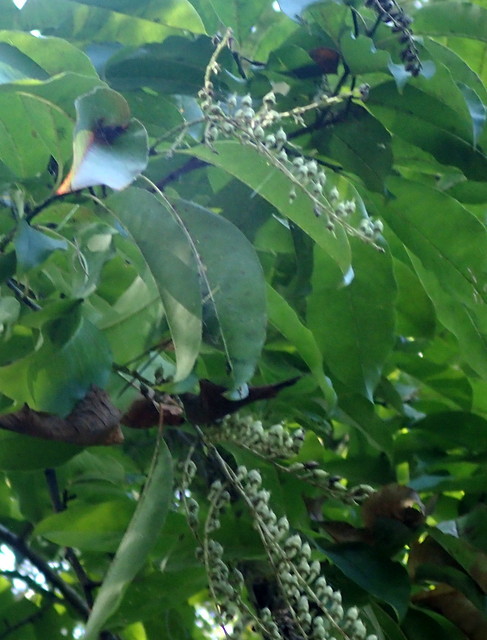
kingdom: Plantae
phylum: Tracheophyta
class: Magnoliopsida
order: Ericales
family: Ericaceae
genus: Oxydendrum
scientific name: Oxydendrum arboreum
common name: Sourwood
